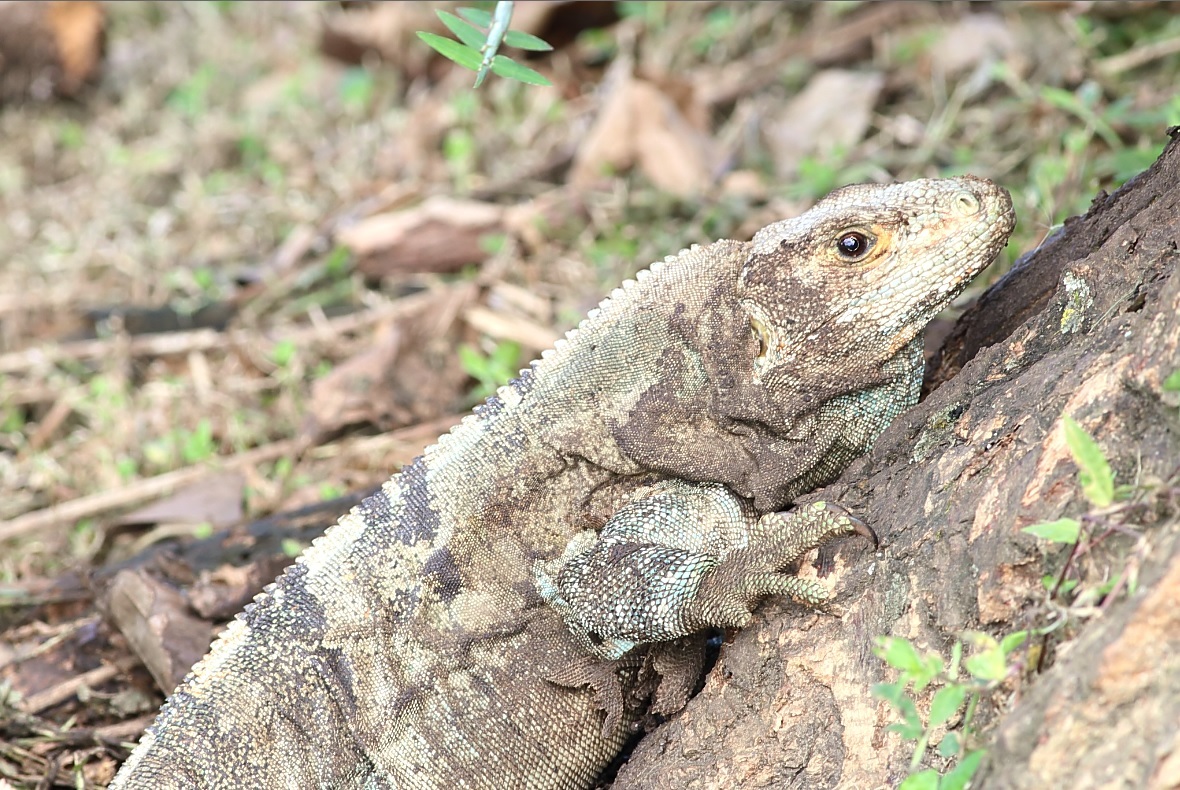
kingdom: Animalia
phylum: Chordata
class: Squamata
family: Iguanidae
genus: Ctenosaura
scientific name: Ctenosaura similis
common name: Black spiny-tailed iguana
